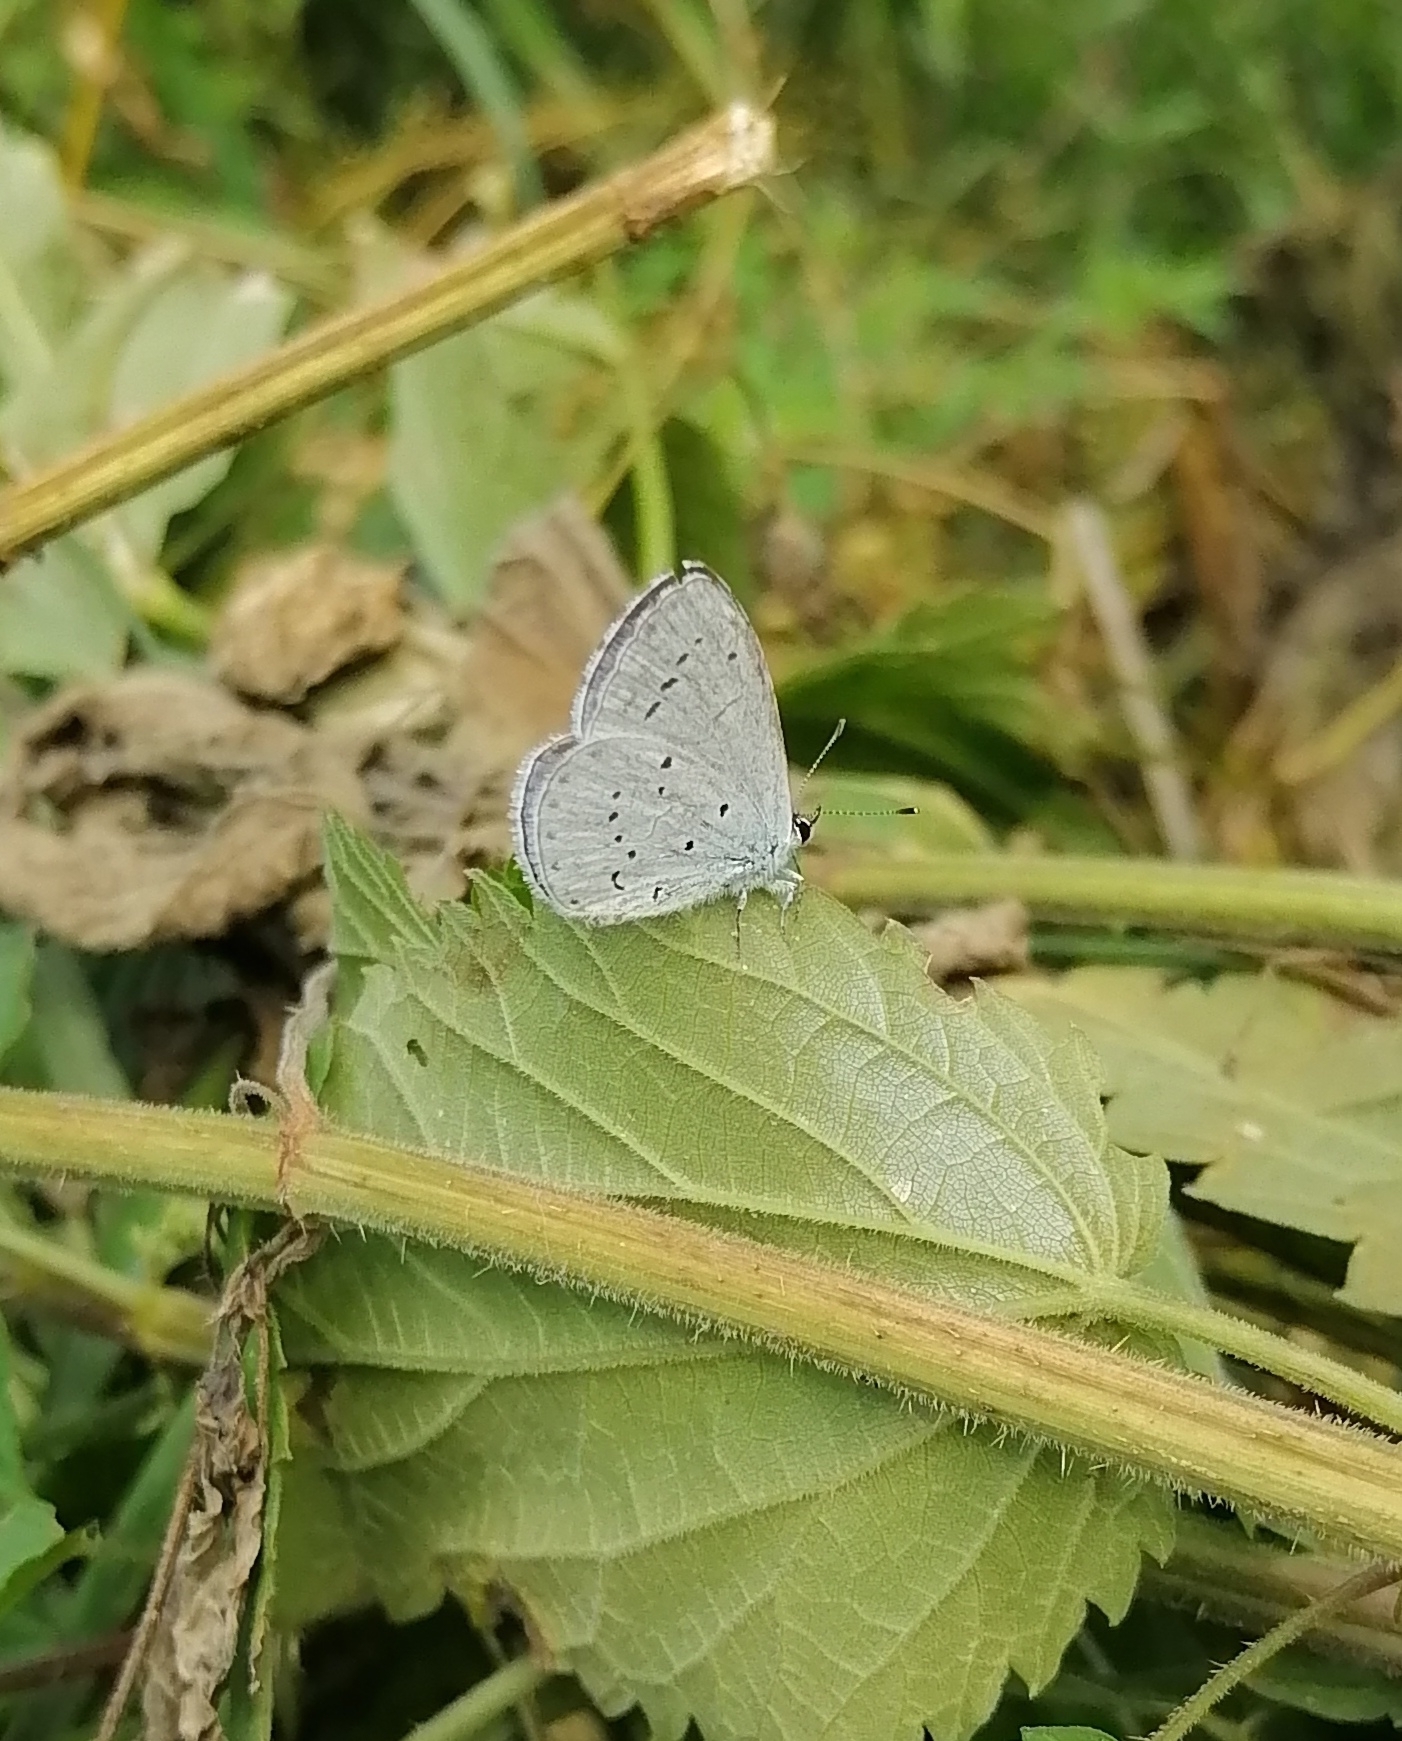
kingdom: Animalia
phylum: Arthropoda
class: Insecta
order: Lepidoptera
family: Lycaenidae
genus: Celastrina
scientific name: Celastrina argiolus
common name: Holly blue
